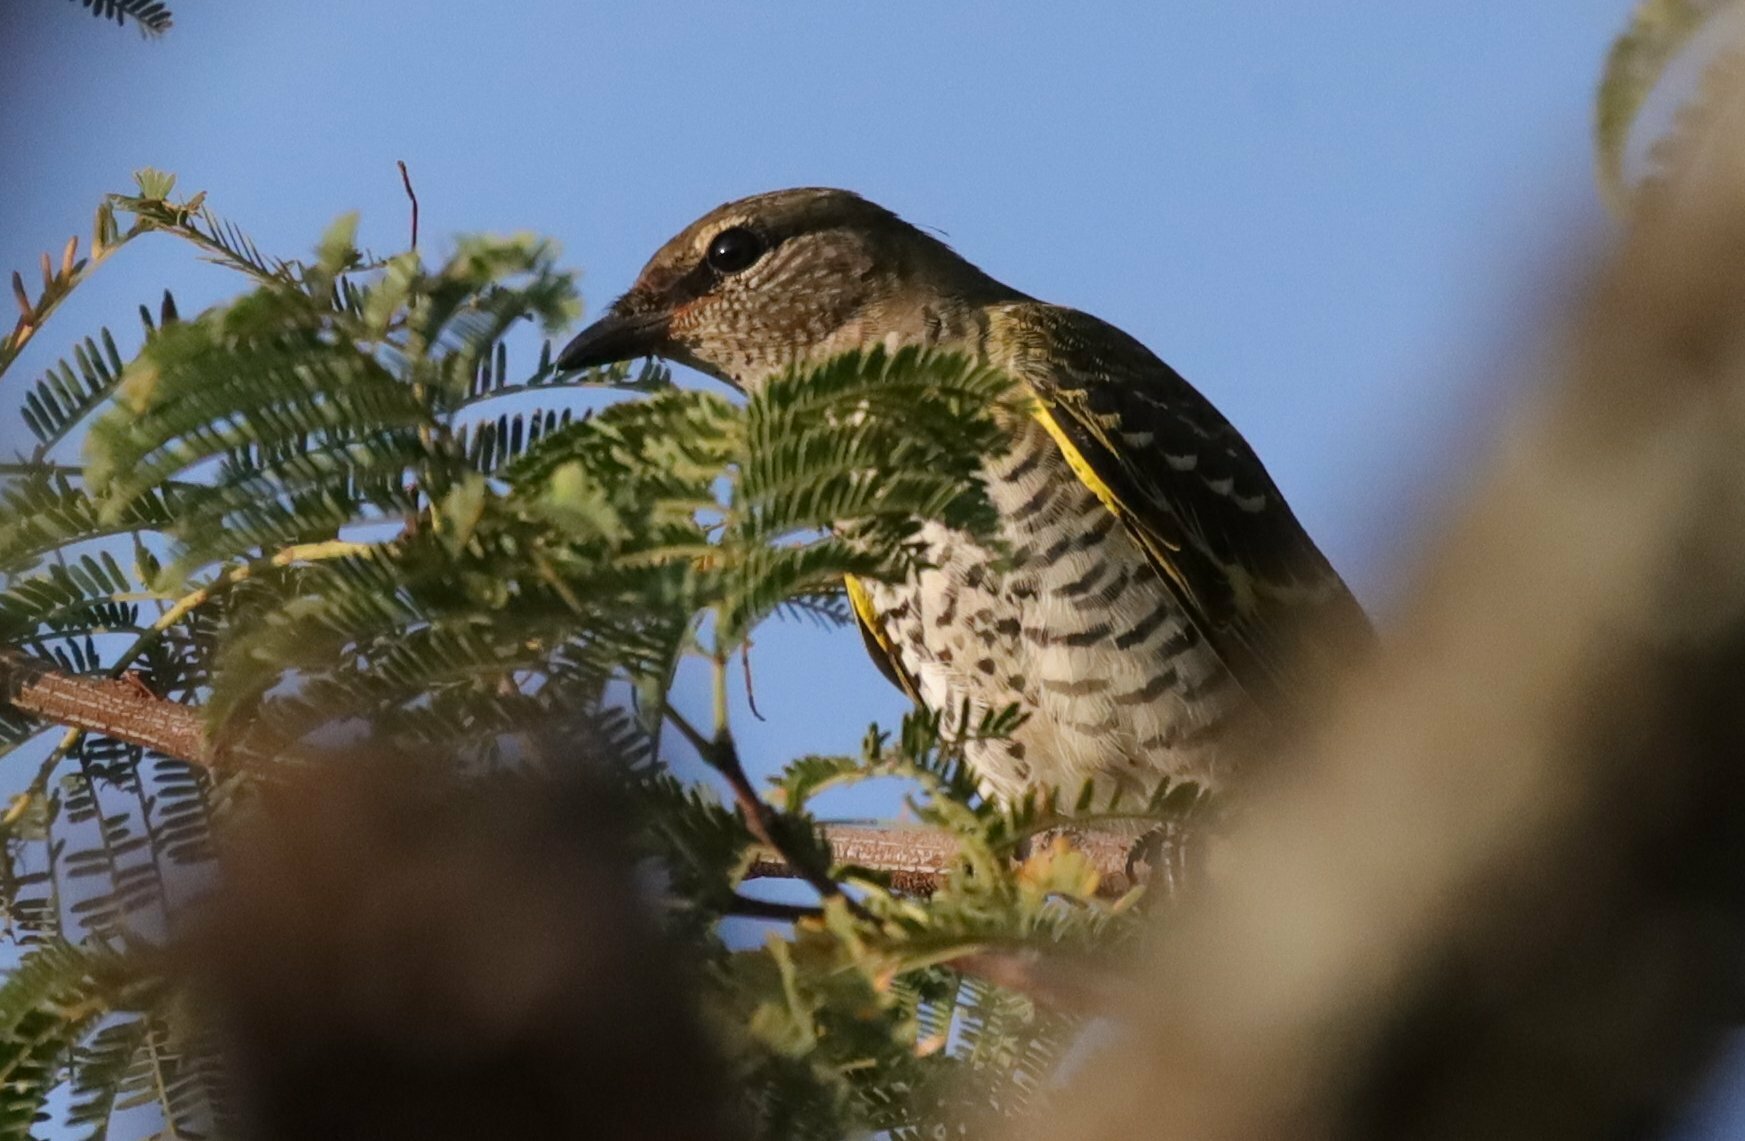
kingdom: Animalia
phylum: Chordata
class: Aves
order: Passeriformes
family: Campephagidae
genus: Campephaga
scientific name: Campephaga flava
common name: Black cuckooshrike
